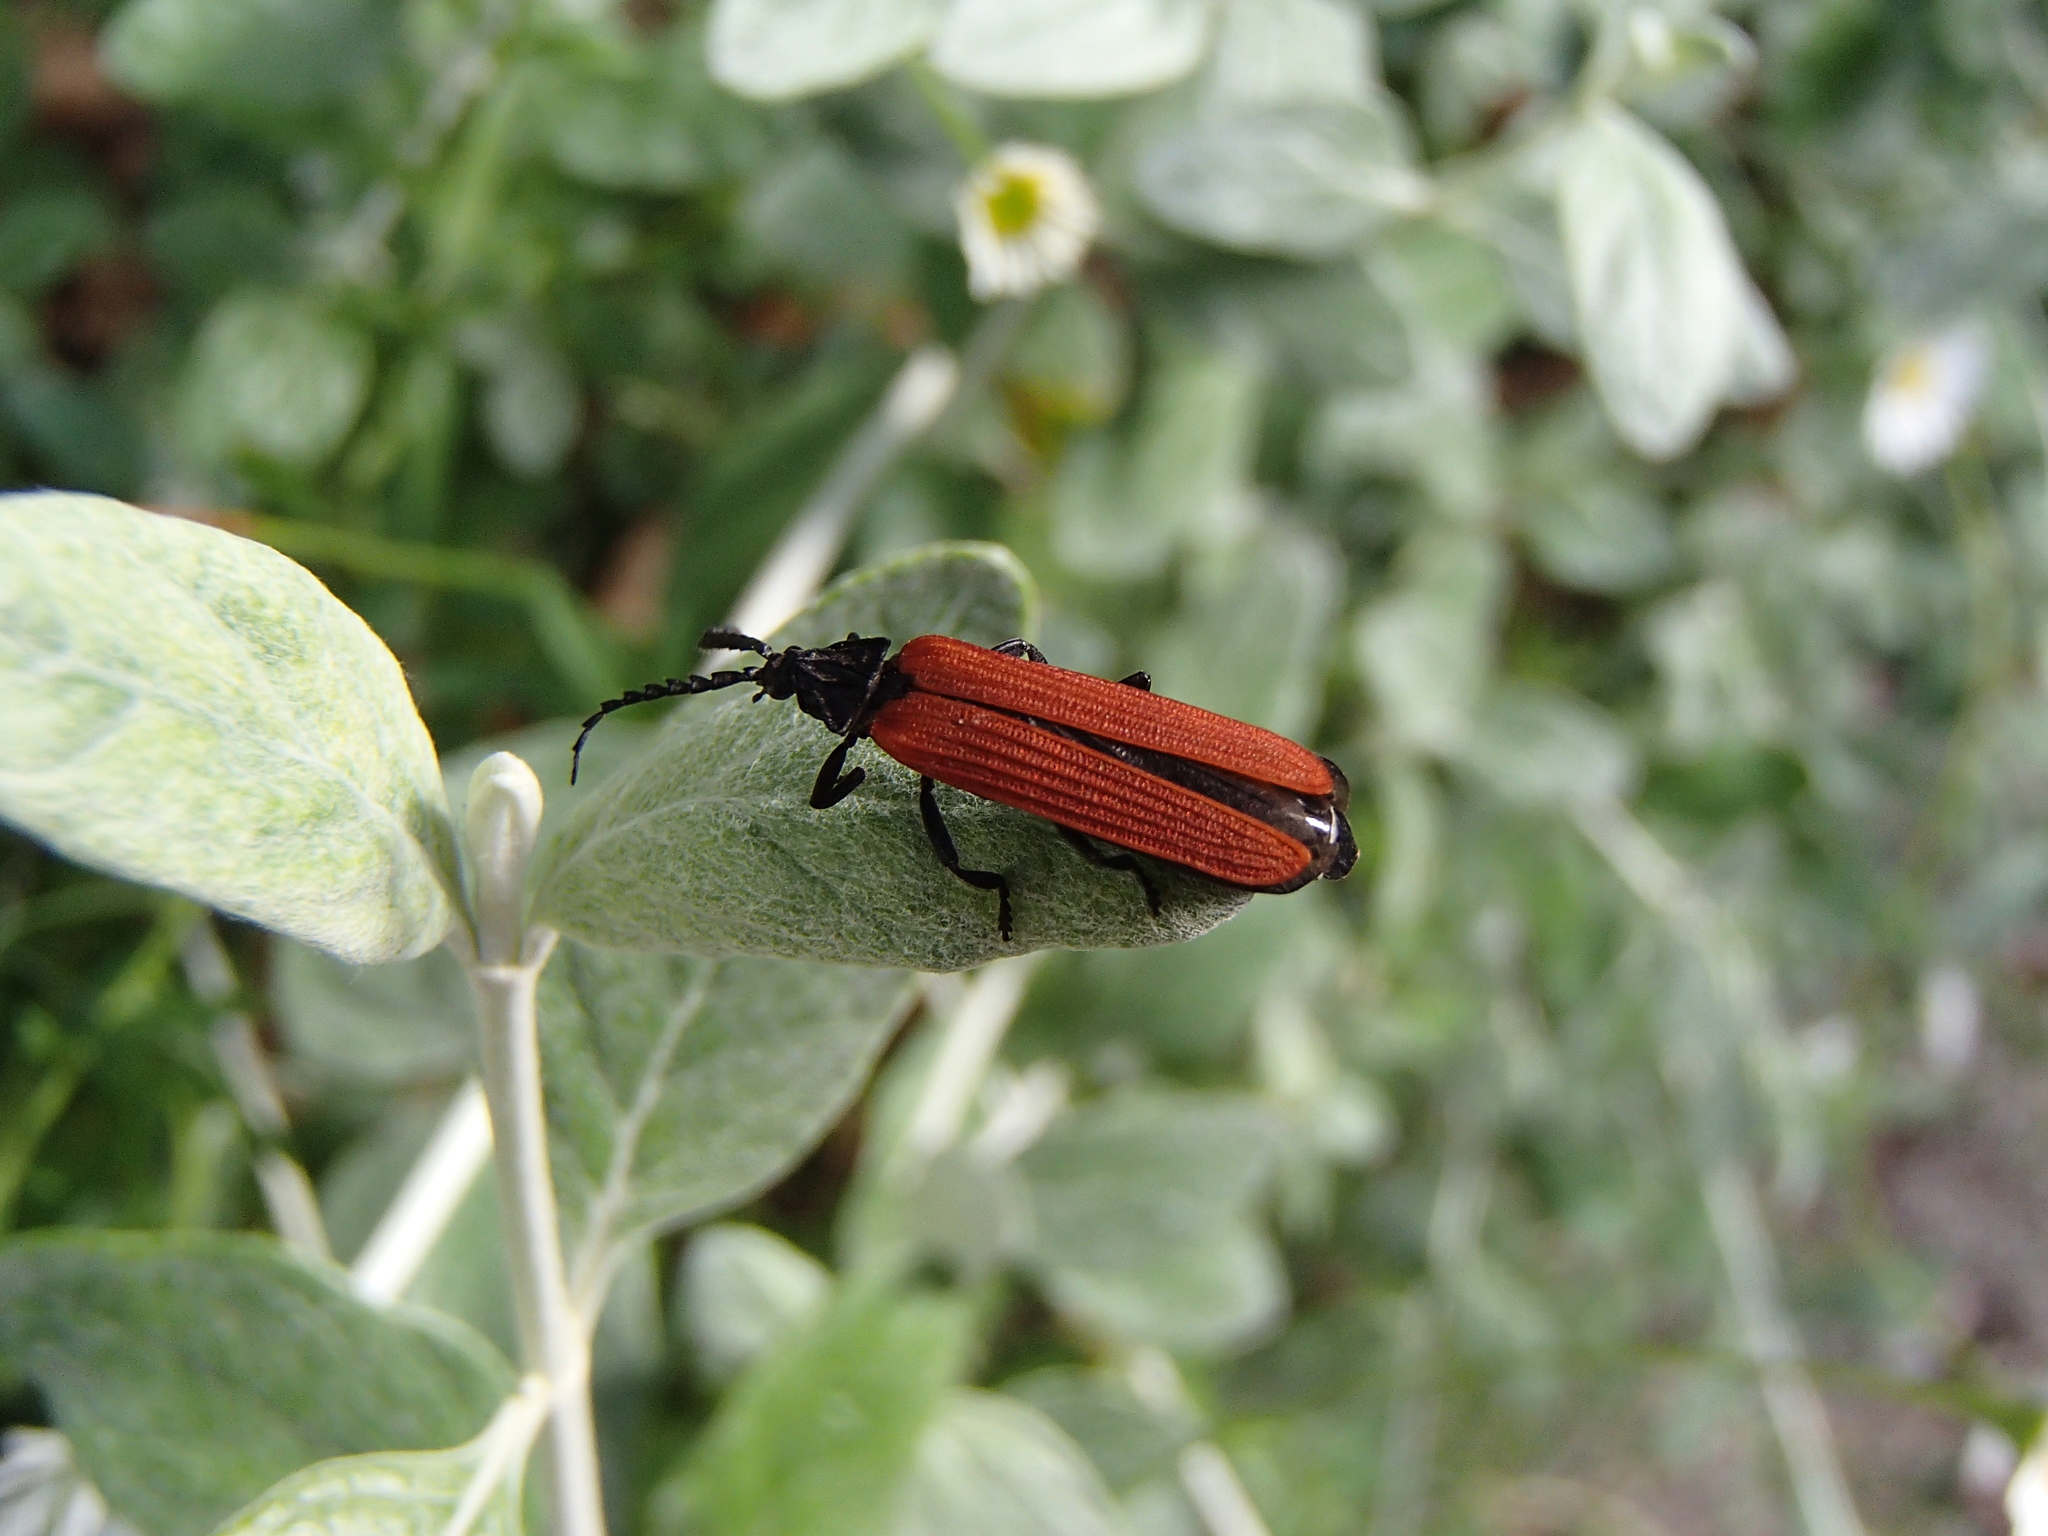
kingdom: Animalia
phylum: Arthropoda
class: Insecta
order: Coleoptera
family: Lycidae
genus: Porrostoma
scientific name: Porrostoma rufipenne
